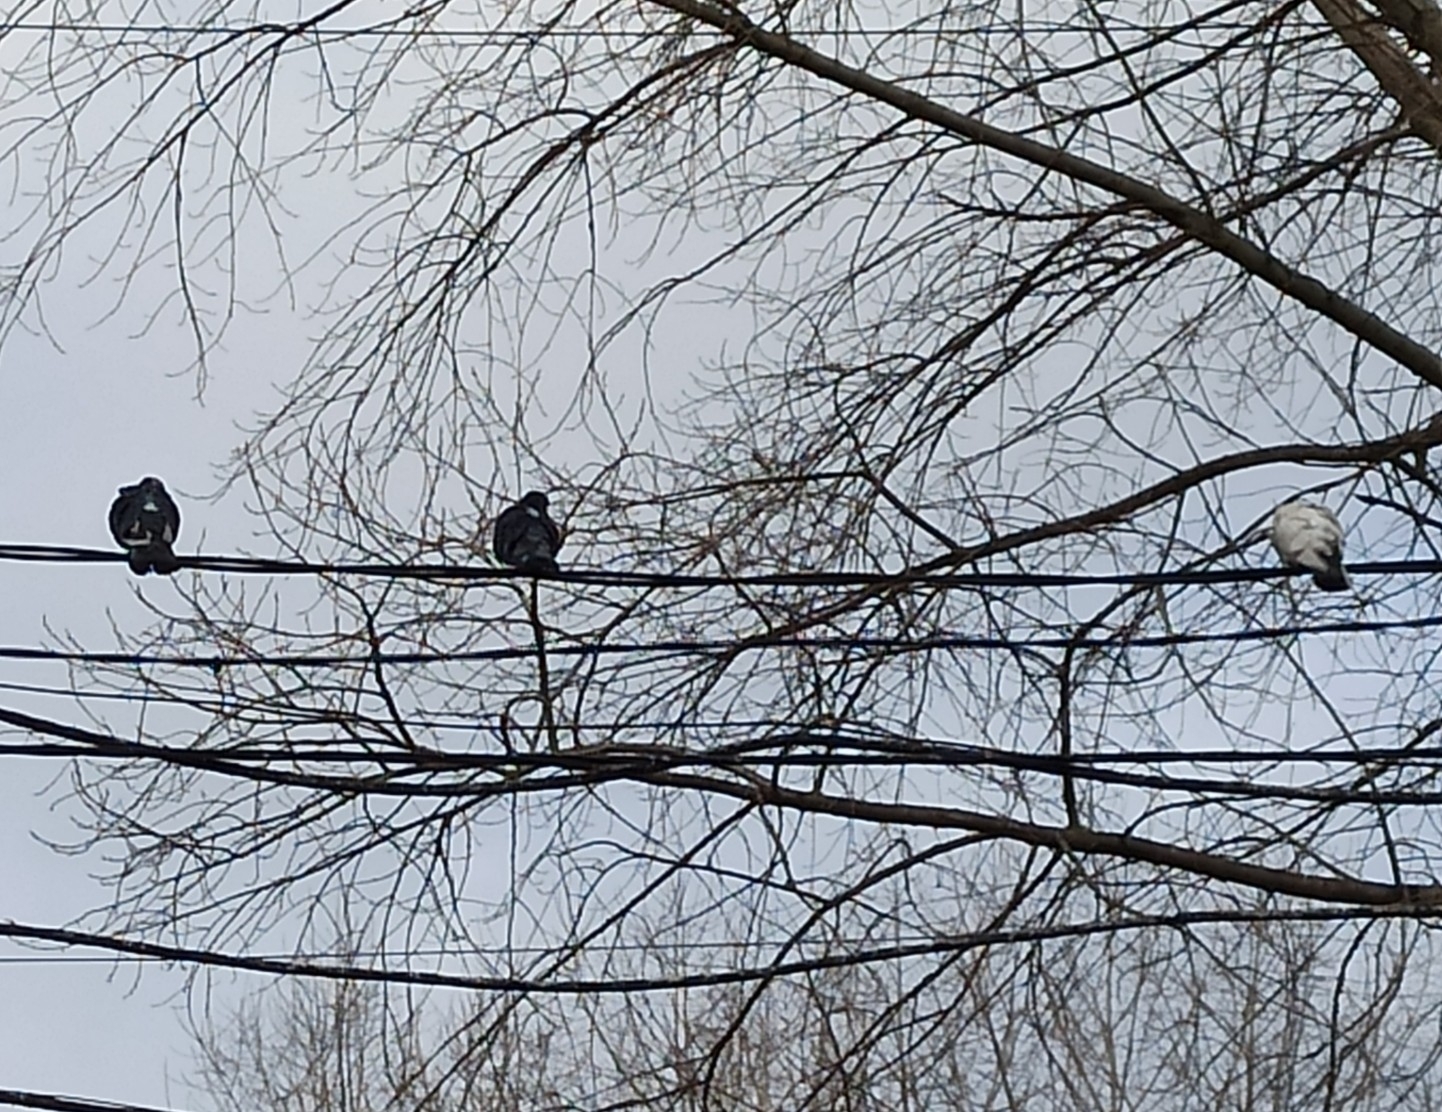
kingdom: Animalia
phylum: Chordata
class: Aves
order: Columbiformes
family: Columbidae
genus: Columba
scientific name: Columba livia
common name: Rock pigeon
